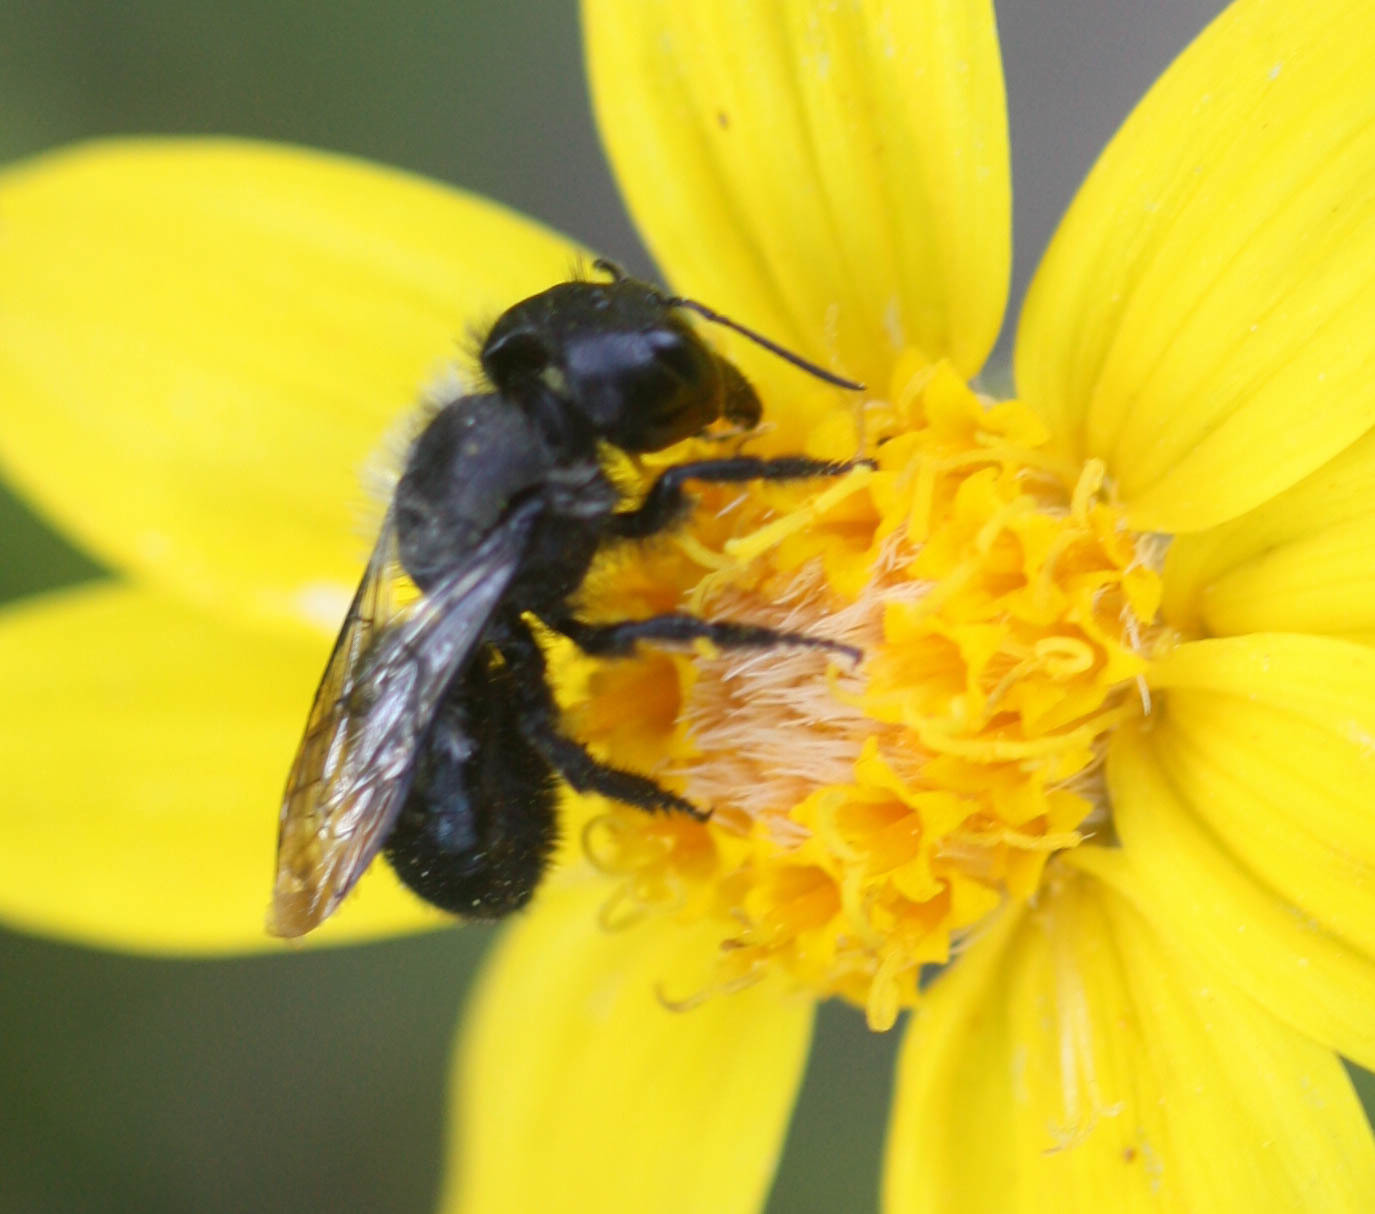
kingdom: Animalia
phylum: Arthropoda
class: Insecta
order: Hymenoptera
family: Megachilidae
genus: Osmia
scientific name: Osmia montana
